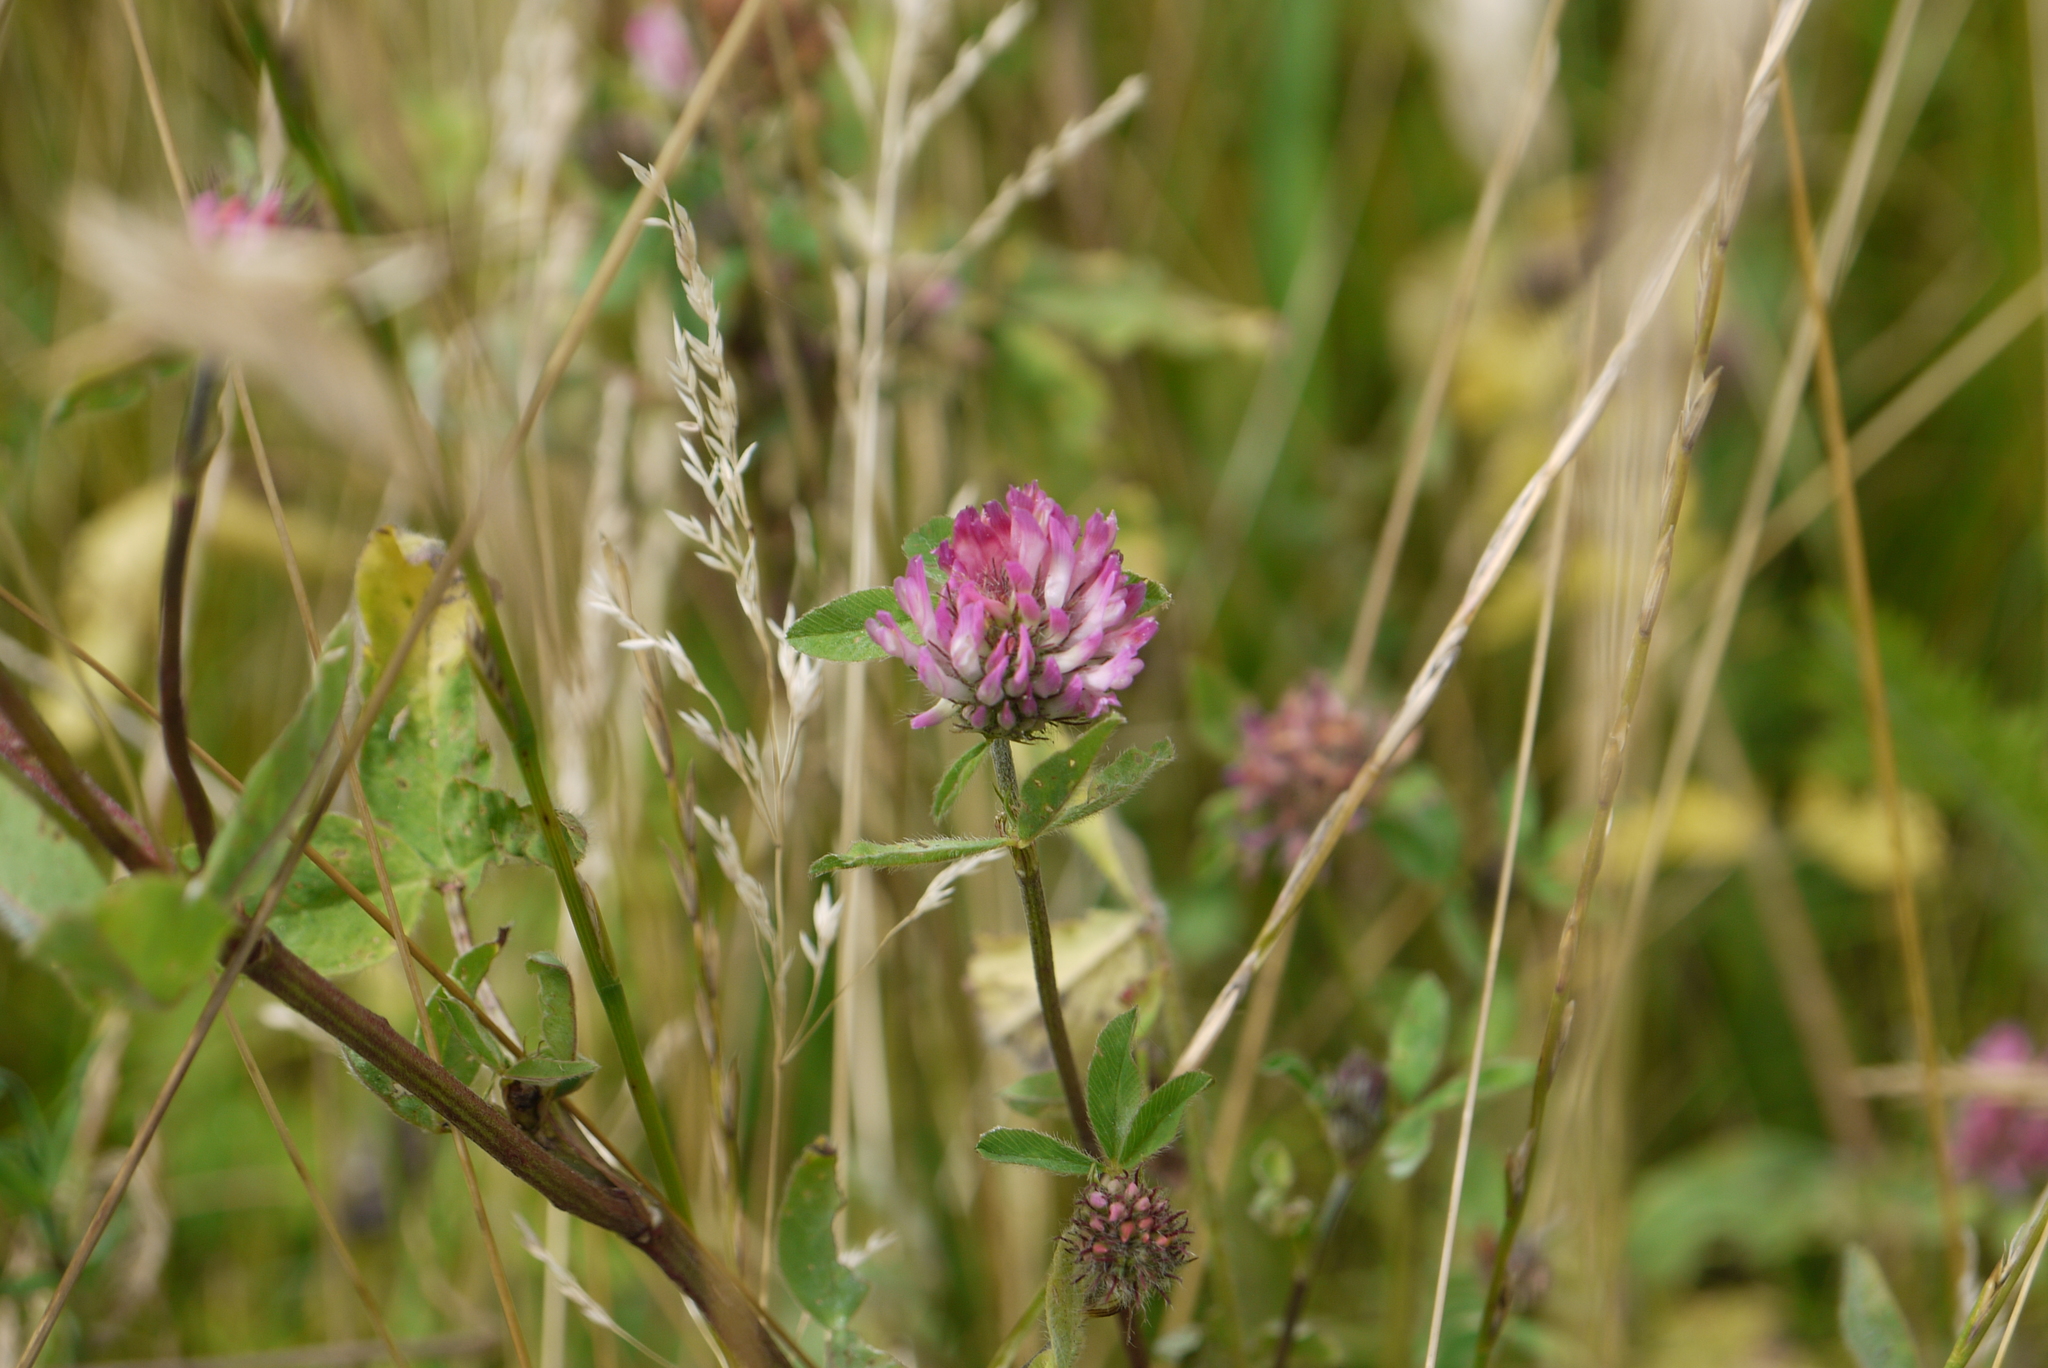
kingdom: Plantae
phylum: Tracheophyta
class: Magnoliopsida
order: Fabales
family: Fabaceae
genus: Trifolium
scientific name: Trifolium pratense
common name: Red clover
